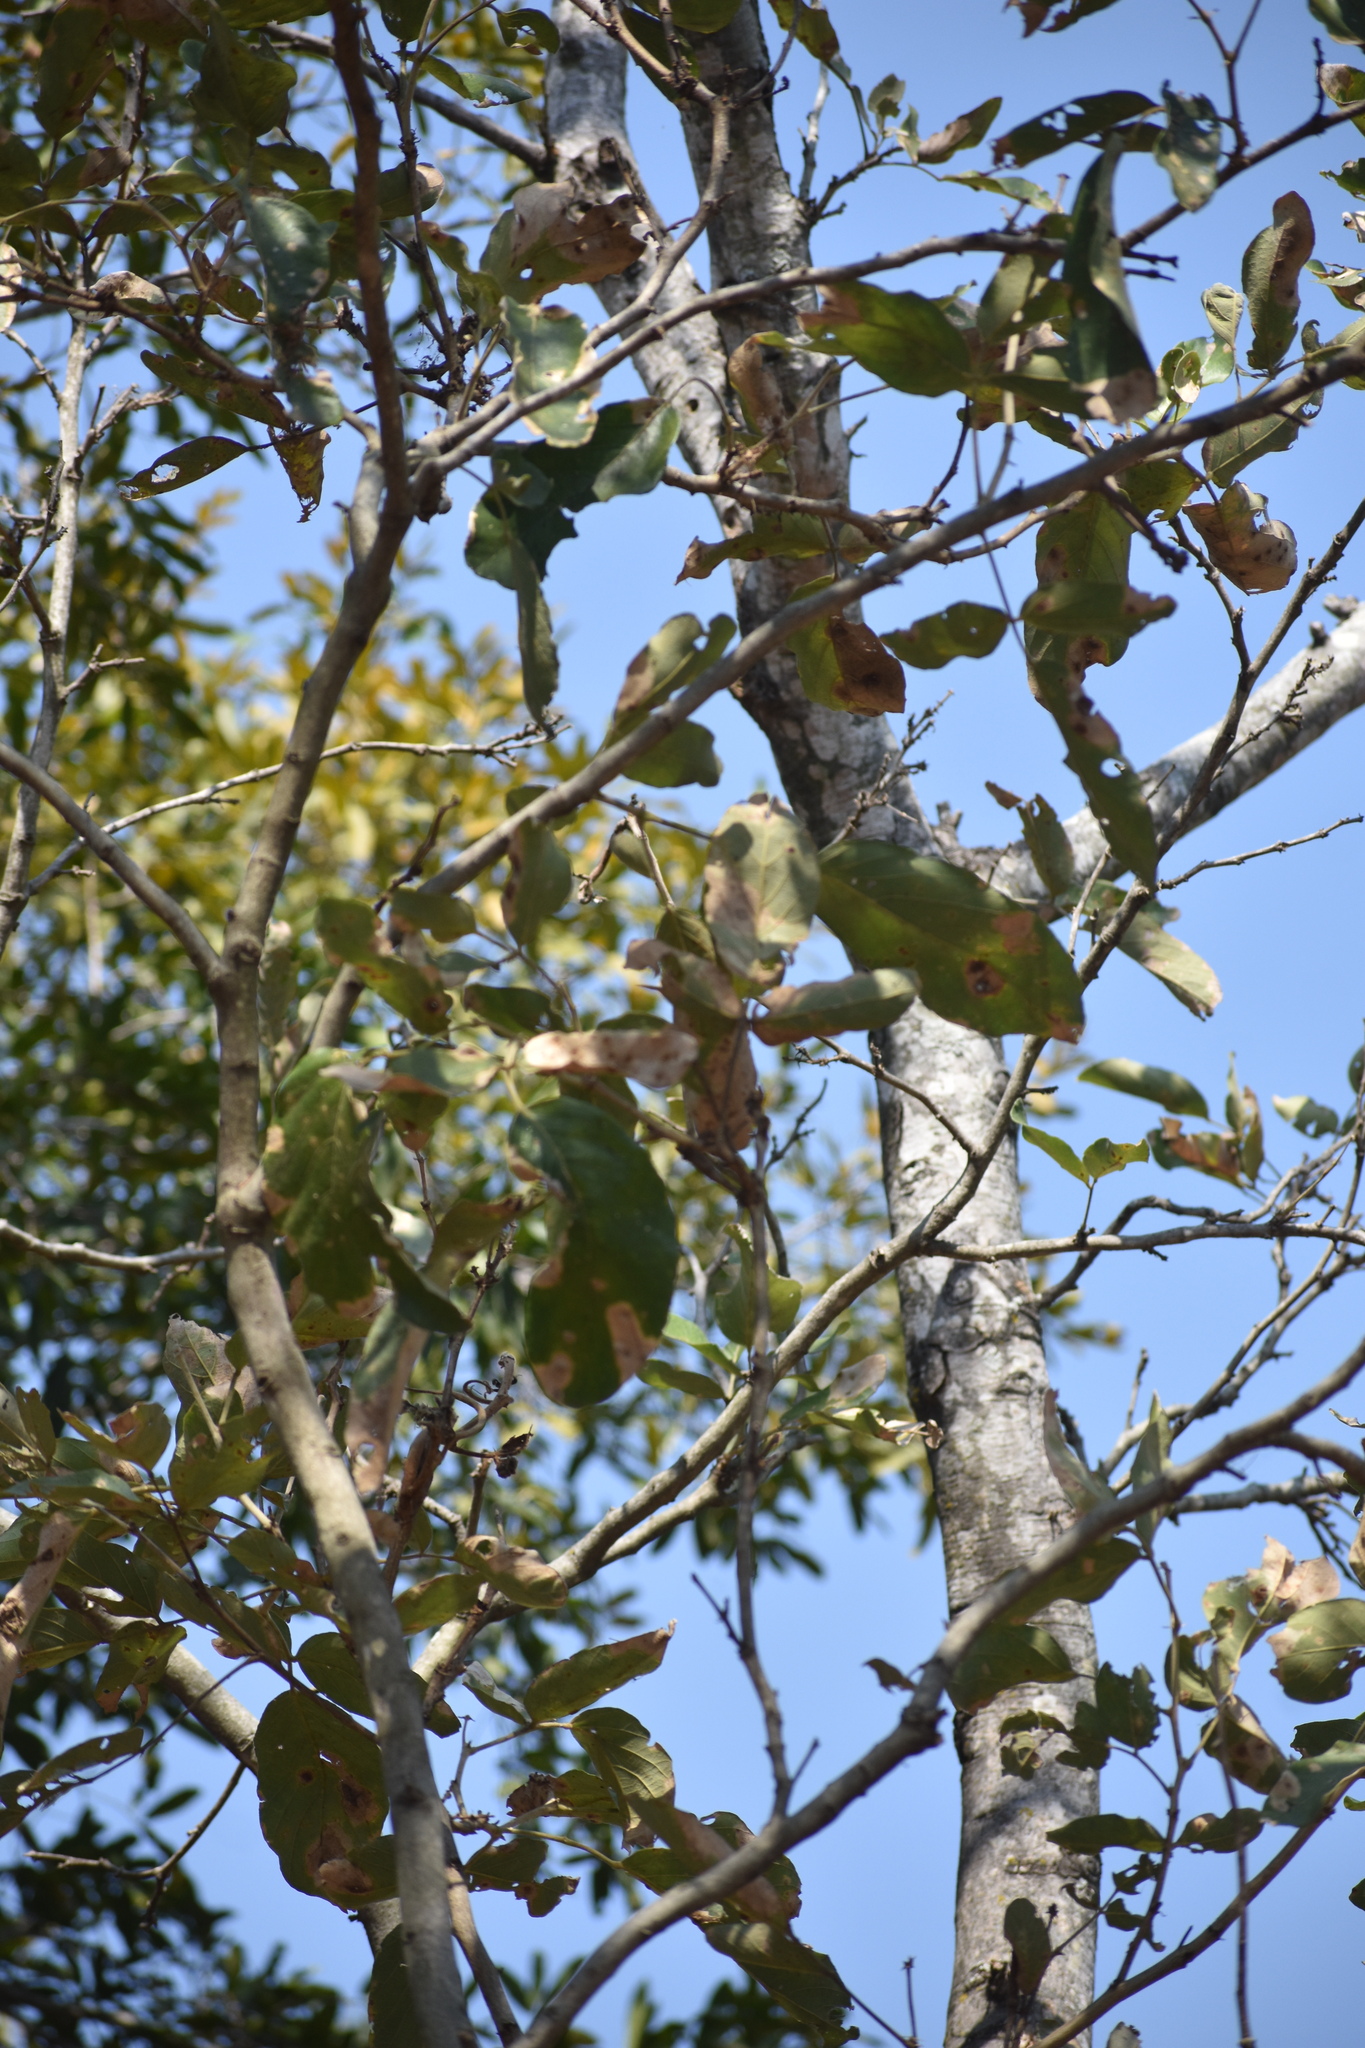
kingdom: Plantae
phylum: Tracheophyta
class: Magnoliopsida
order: Fabales
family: Fabaceae
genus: Philenoptera
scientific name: Philenoptera violacea
